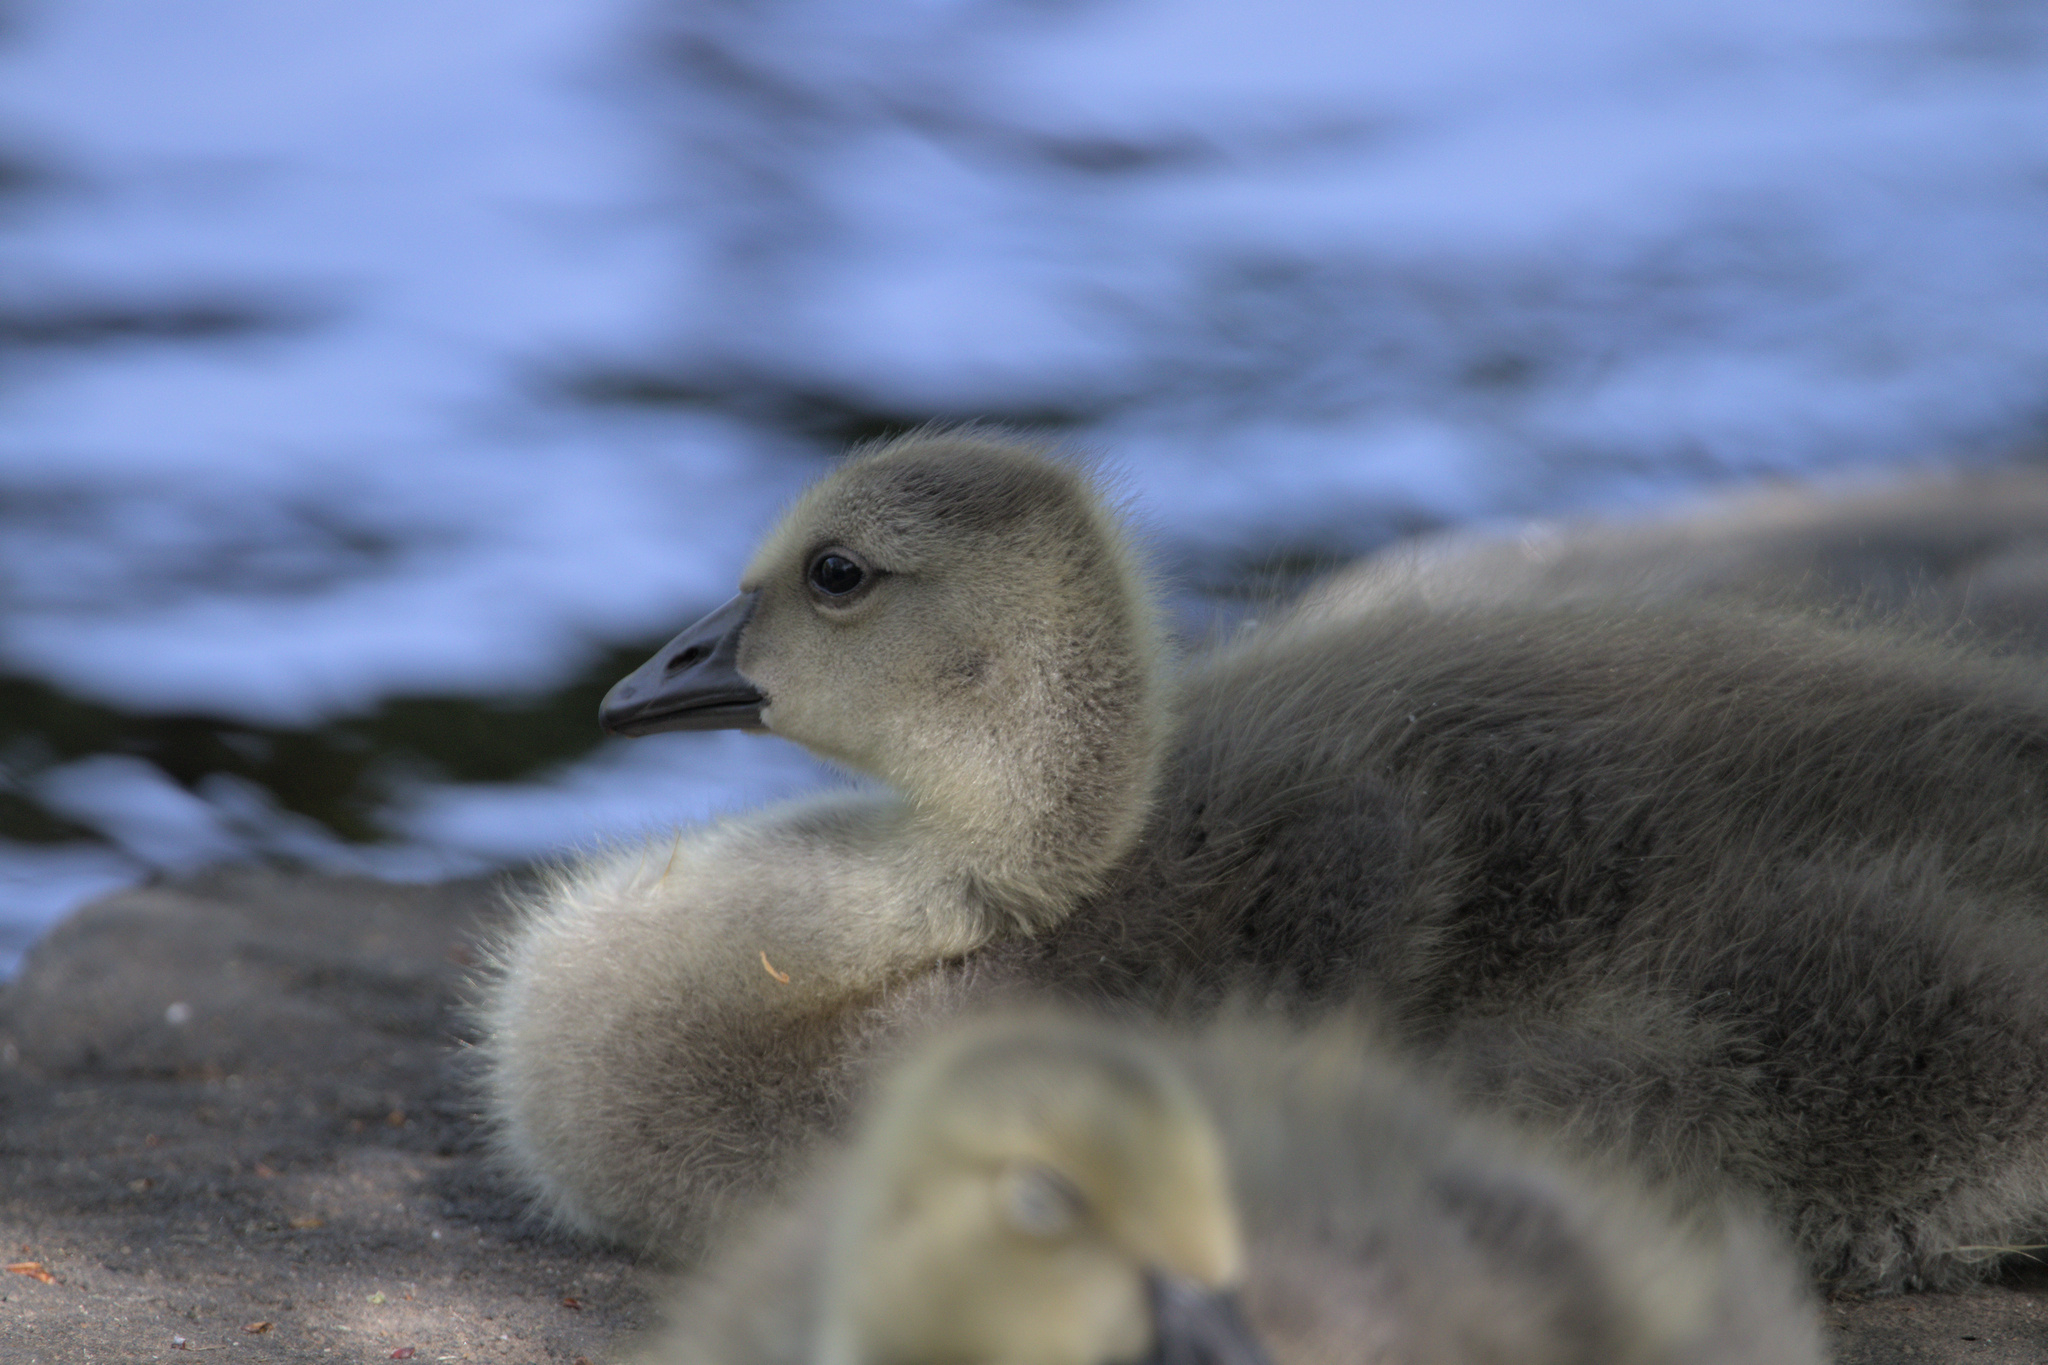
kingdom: Animalia
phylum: Chordata
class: Aves
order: Anseriformes
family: Anatidae
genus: Branta
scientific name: Branta canadensis
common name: Canada goose
